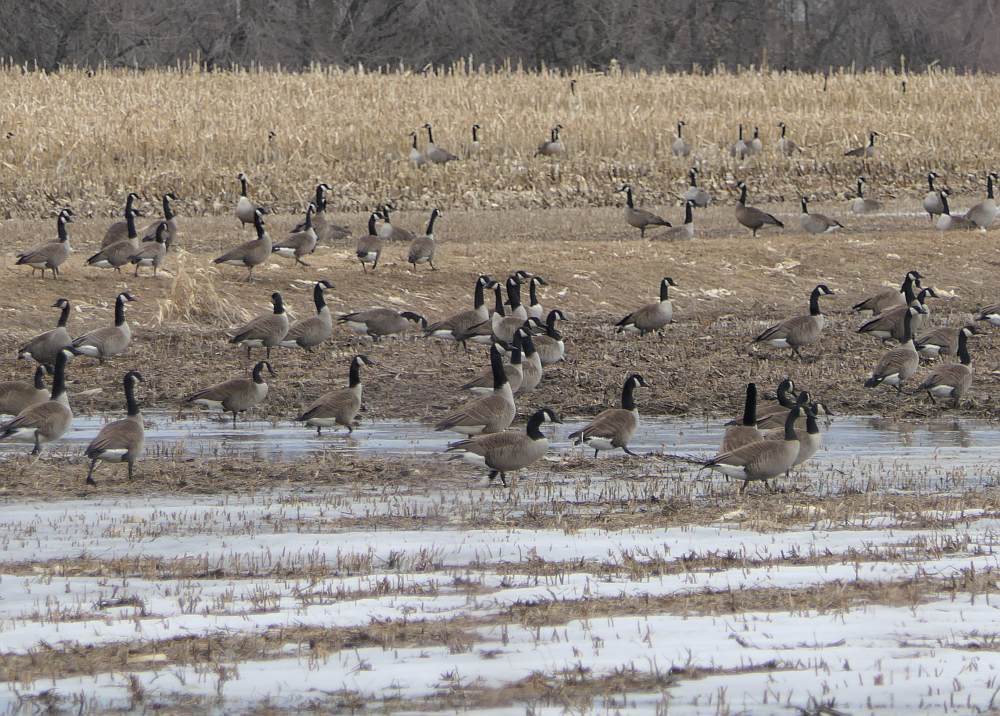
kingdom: Animalia
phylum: Chordata
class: Aves
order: Anseriformes
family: Anatidae
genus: Branta
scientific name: Branta canadensis
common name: Canada goose
